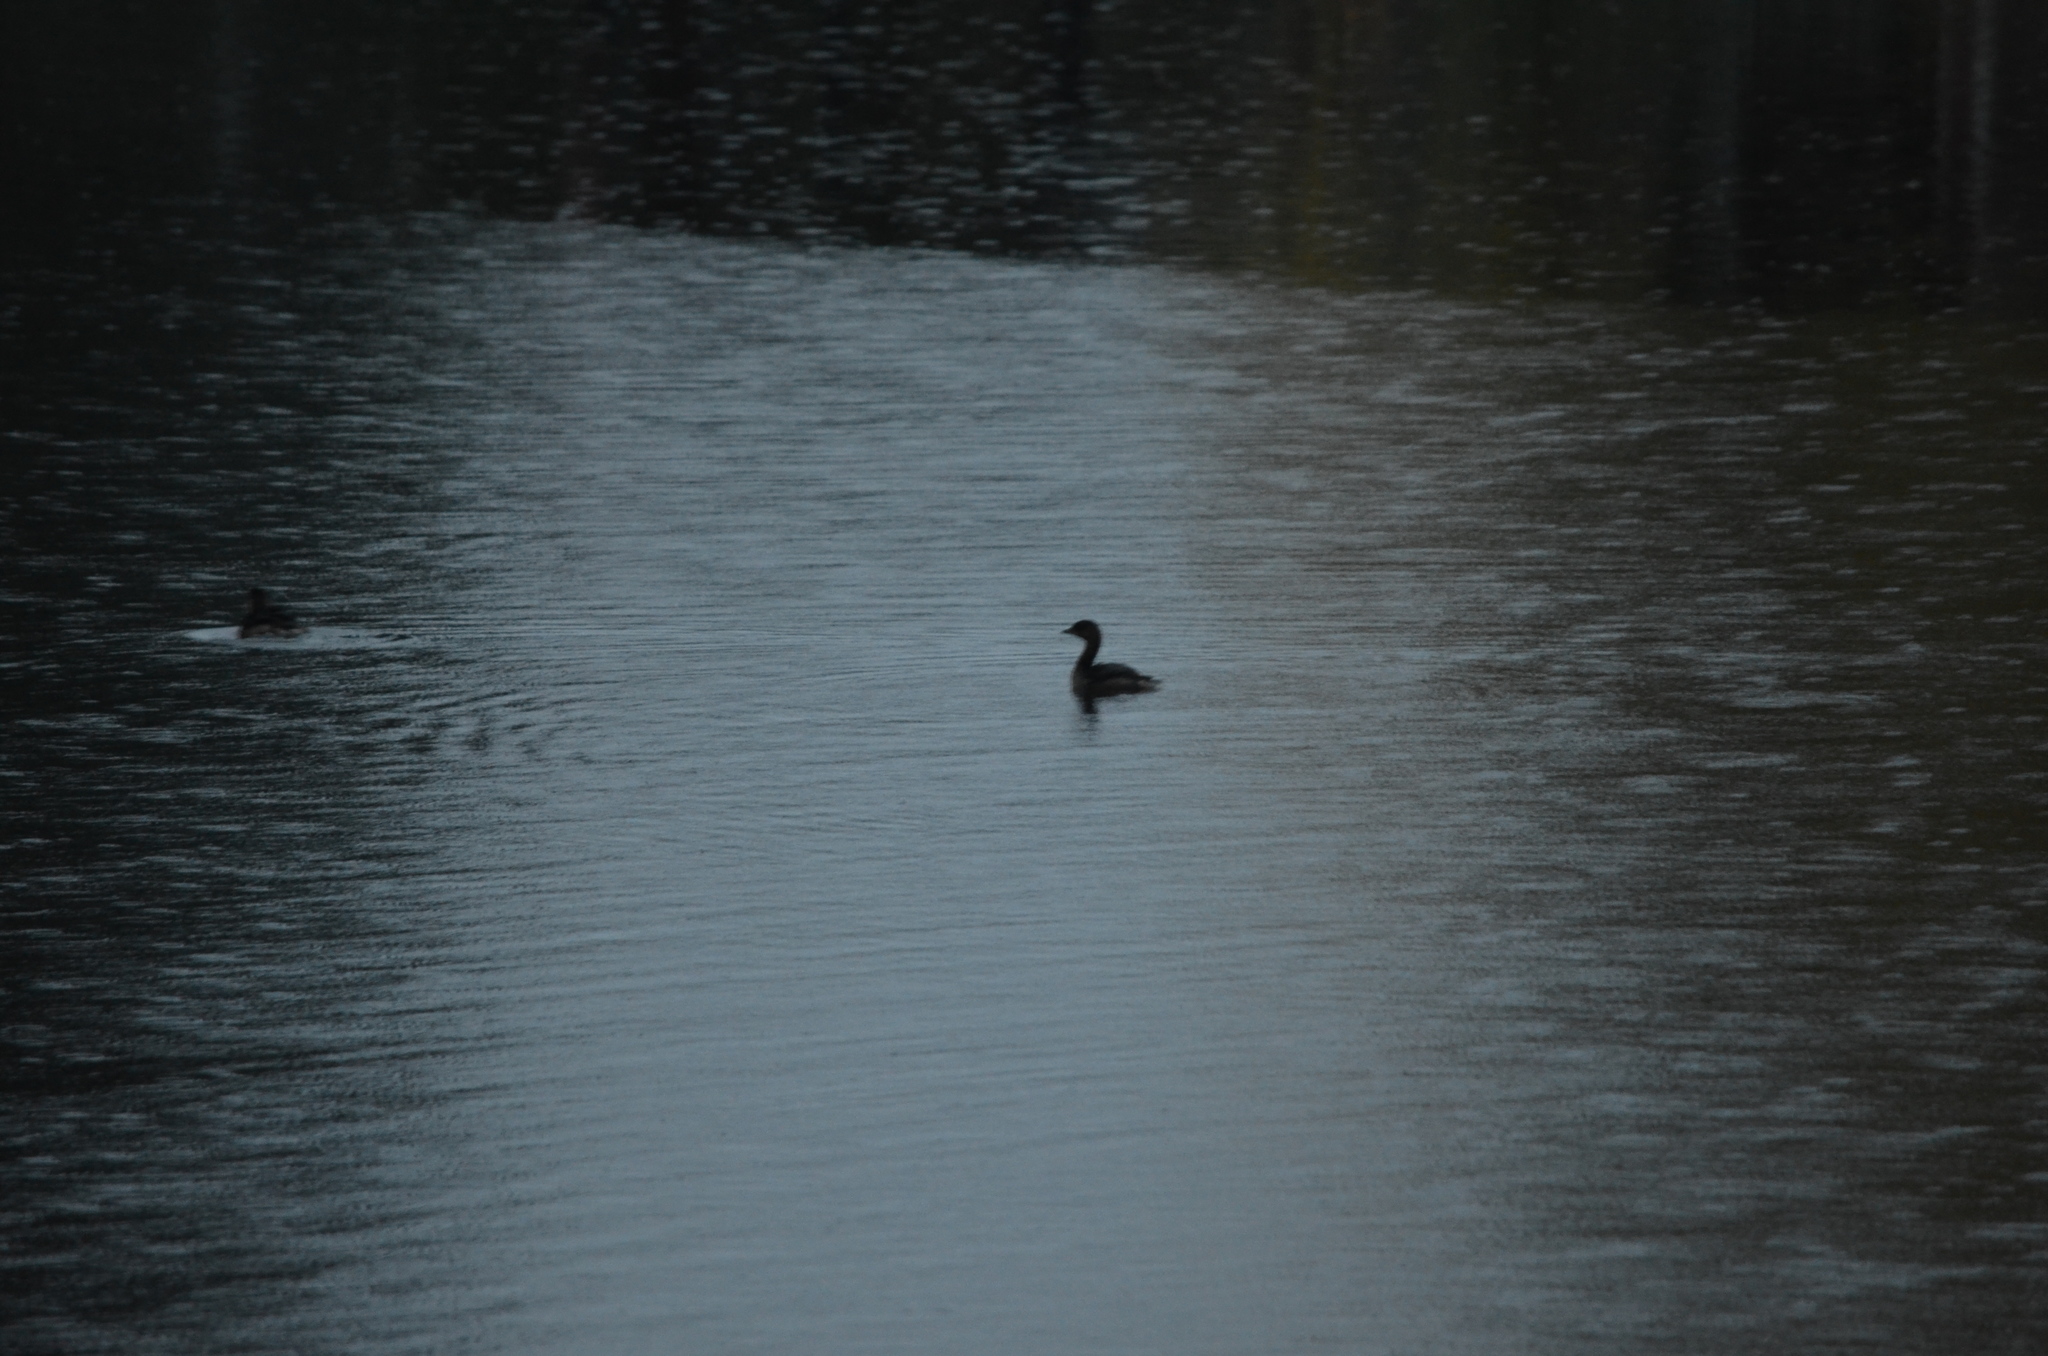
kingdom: Animalia
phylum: Chordata
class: Aves
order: Podicipediformes
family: Podicipedidae
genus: Podilymbus
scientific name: Podilymbus podiceps
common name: Pied-billed grebe
